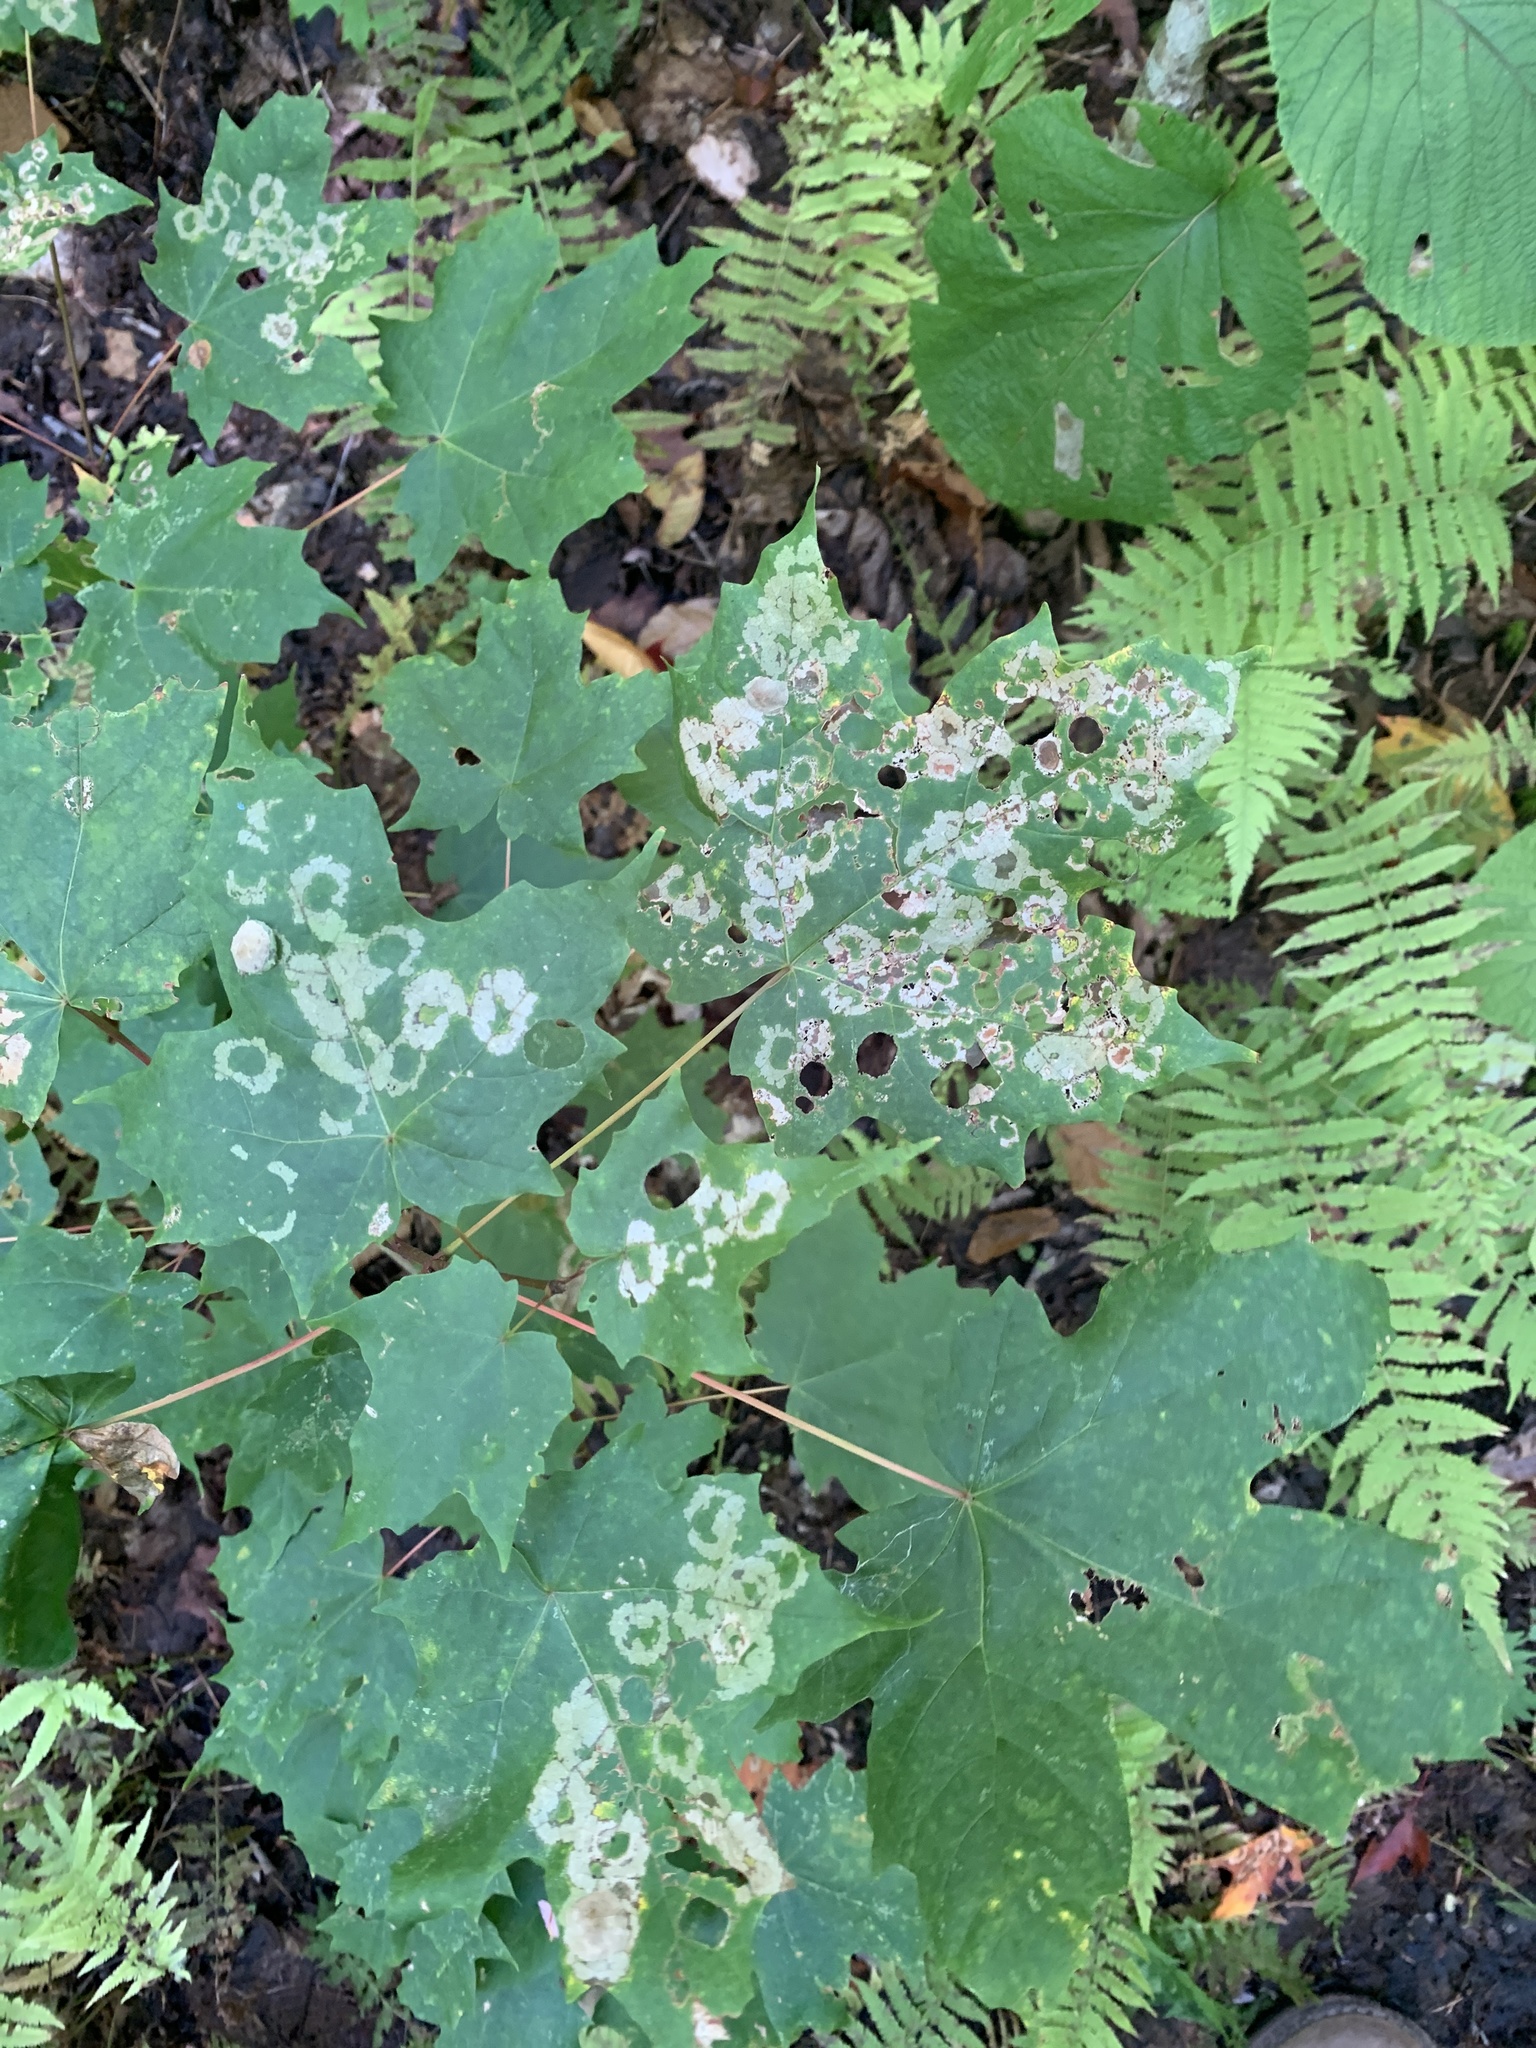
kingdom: Animalia
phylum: Arthropoda
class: Insecta
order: Lepidoptera
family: Incurvariidae
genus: Paraclemensia
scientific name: Paraclemensia acerifoliella
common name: Maple leafcutter
